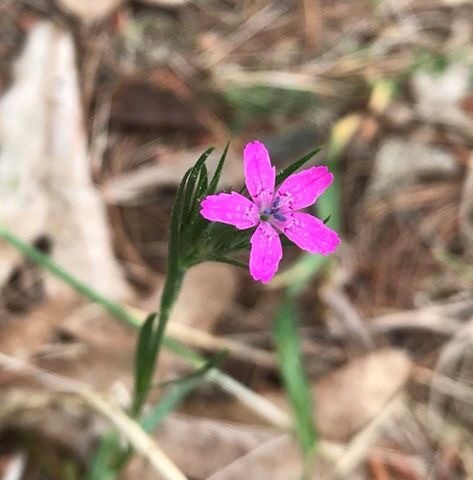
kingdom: Plantae
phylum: Tracheophyta
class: Magnoliopsida
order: Caryophyllales
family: Caryophyllaceae
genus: Dianthus
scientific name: Dianthus armeria
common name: Deptford pink
